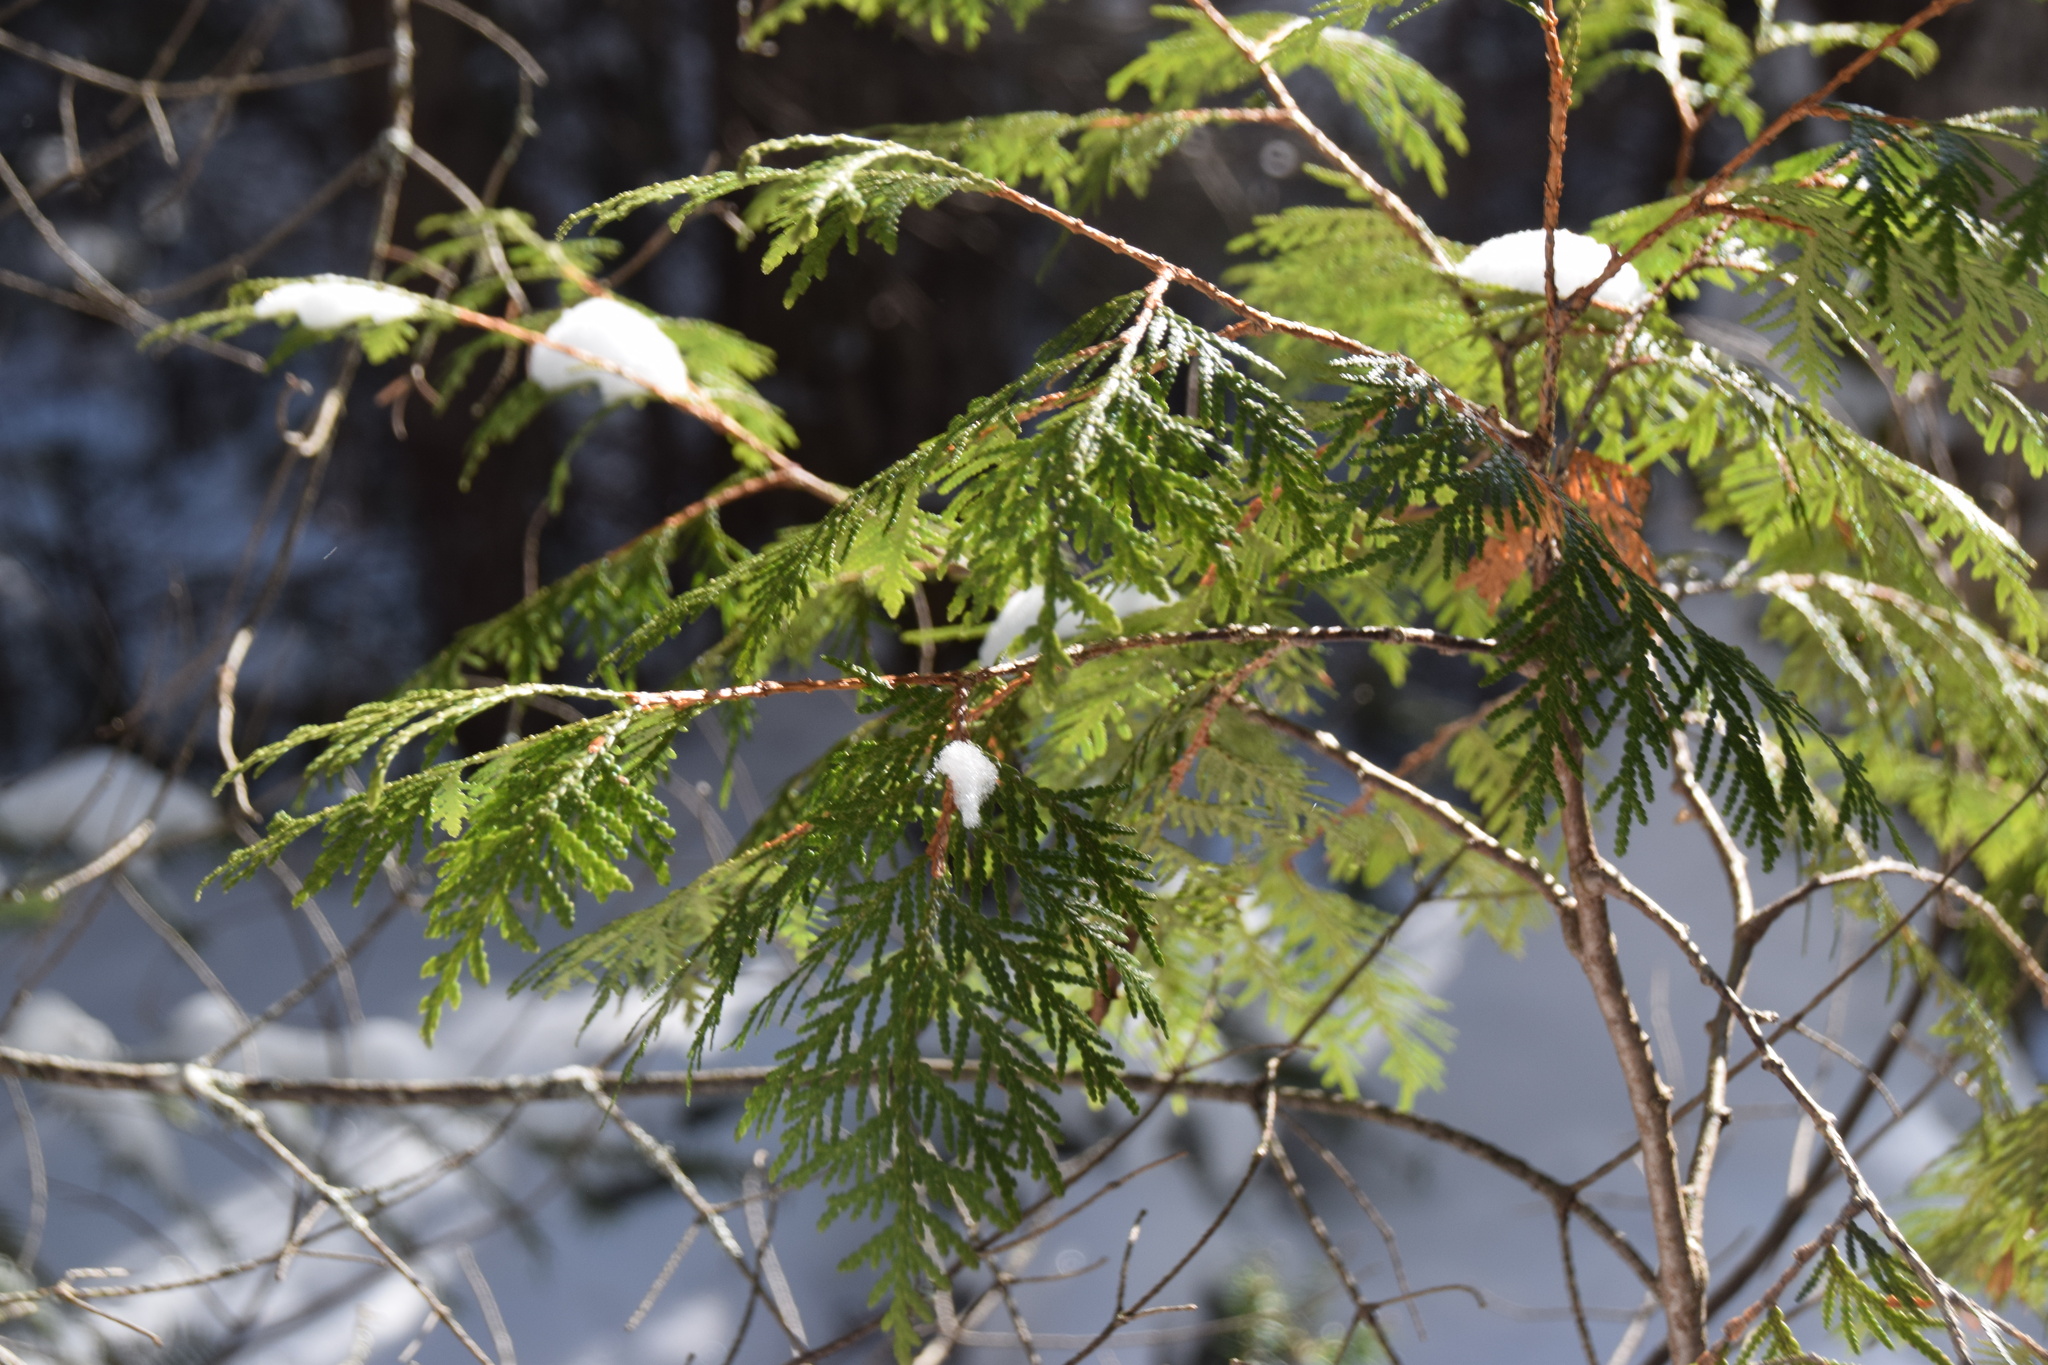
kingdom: Plantae
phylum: Tracheophyta
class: Pinopsida
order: Pinales
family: Cupressaceae
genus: Thuja
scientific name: Thuja occidentalis
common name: Northern white-cedar
